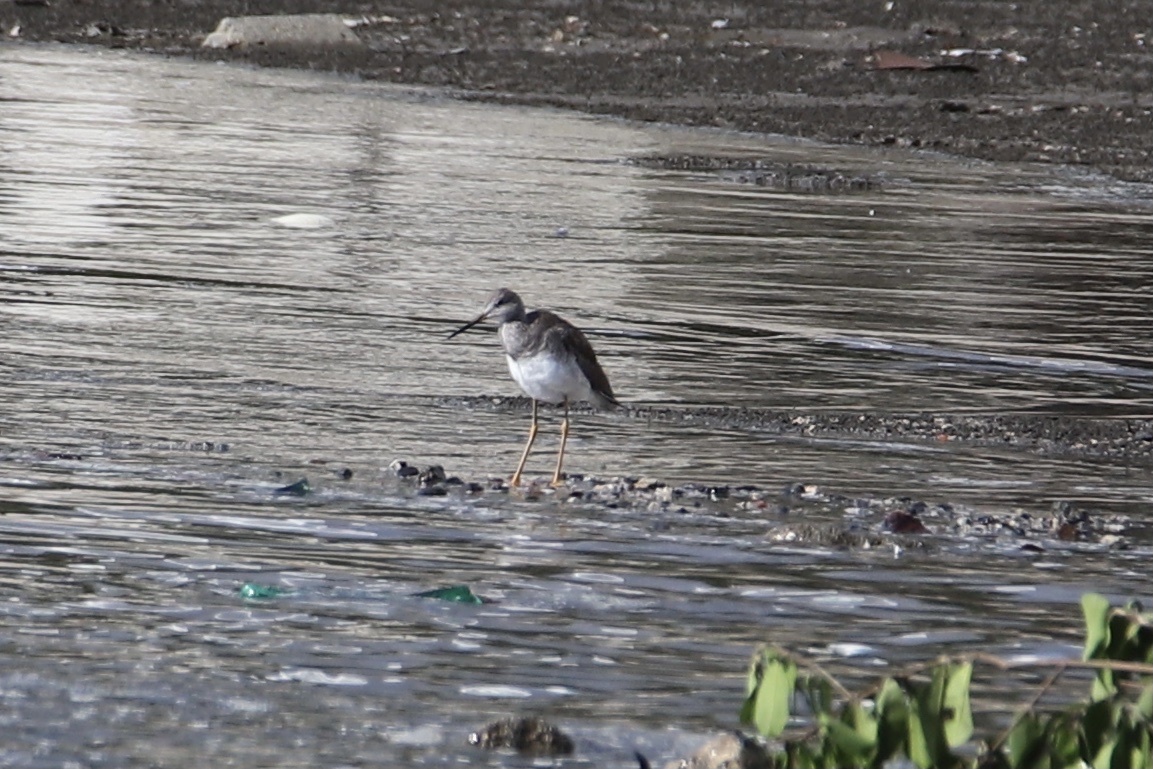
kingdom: Animalia
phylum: Chordata
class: Aves
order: Charadriiformes
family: Scolopacidae
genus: Tringa
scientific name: Tringa melanoleuca
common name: Greater yellowlegs
